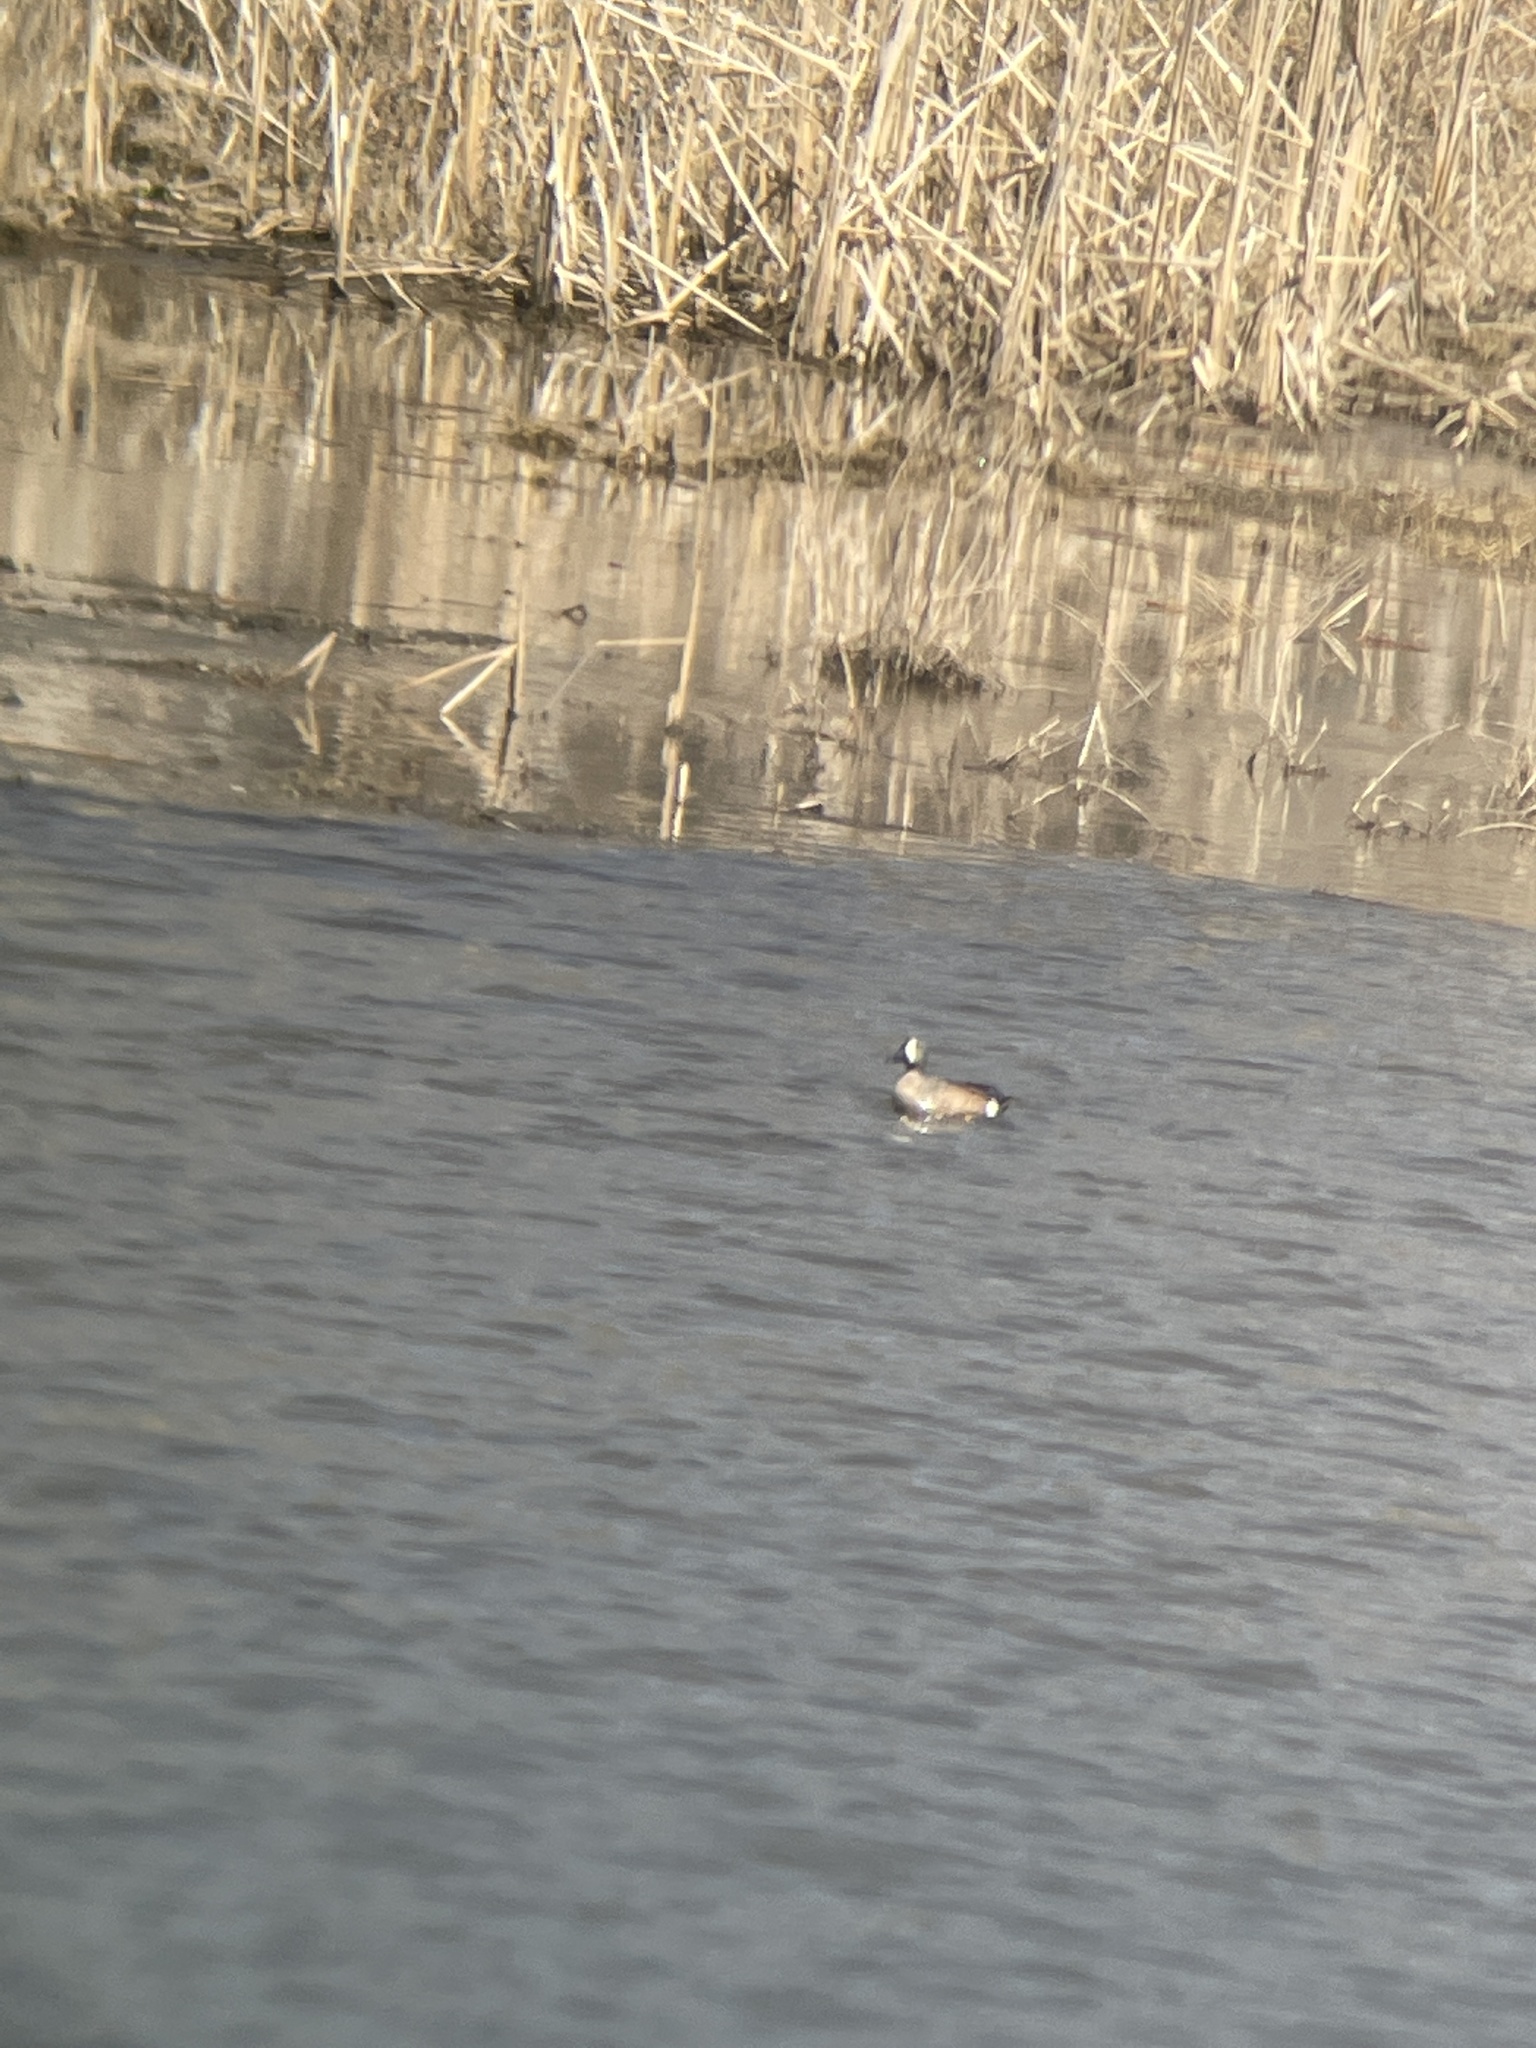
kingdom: Animalia
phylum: Chordata
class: Aves
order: Anseriformes
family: Anatidae
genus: Spatula
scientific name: Spatula discors
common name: Blue-winged teal
